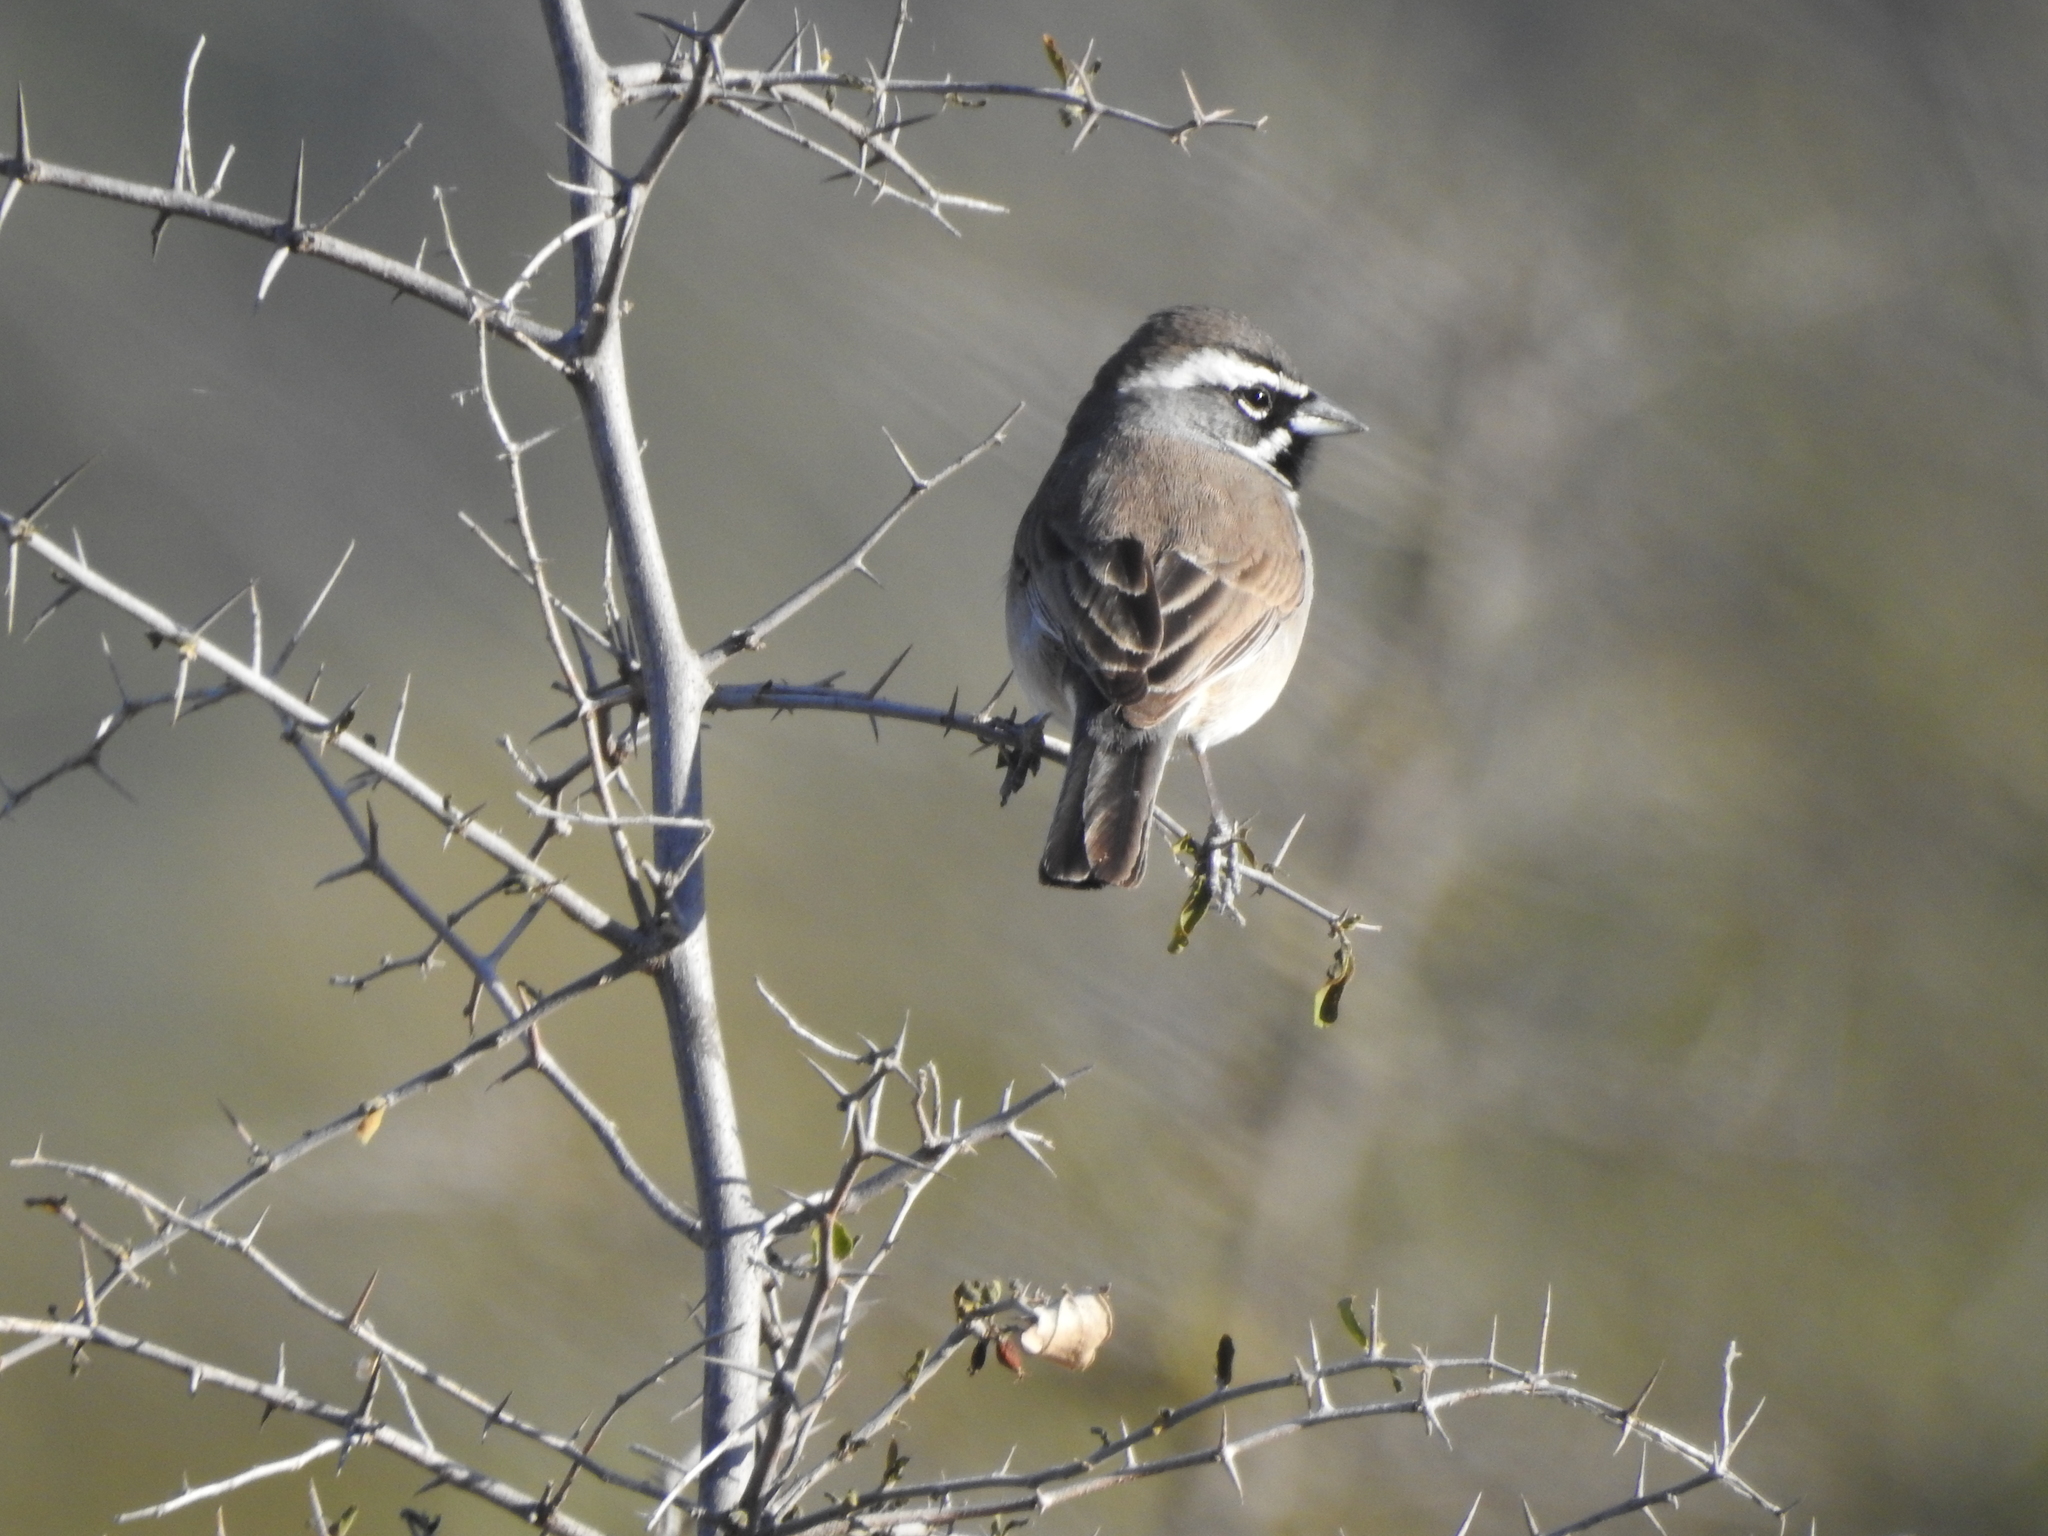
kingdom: Animalia
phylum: Chordata
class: Aves
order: Passeriformes
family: Passerellidae
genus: Amphispiza
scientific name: Amphispiza bilineata
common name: Black-throated sparrow
